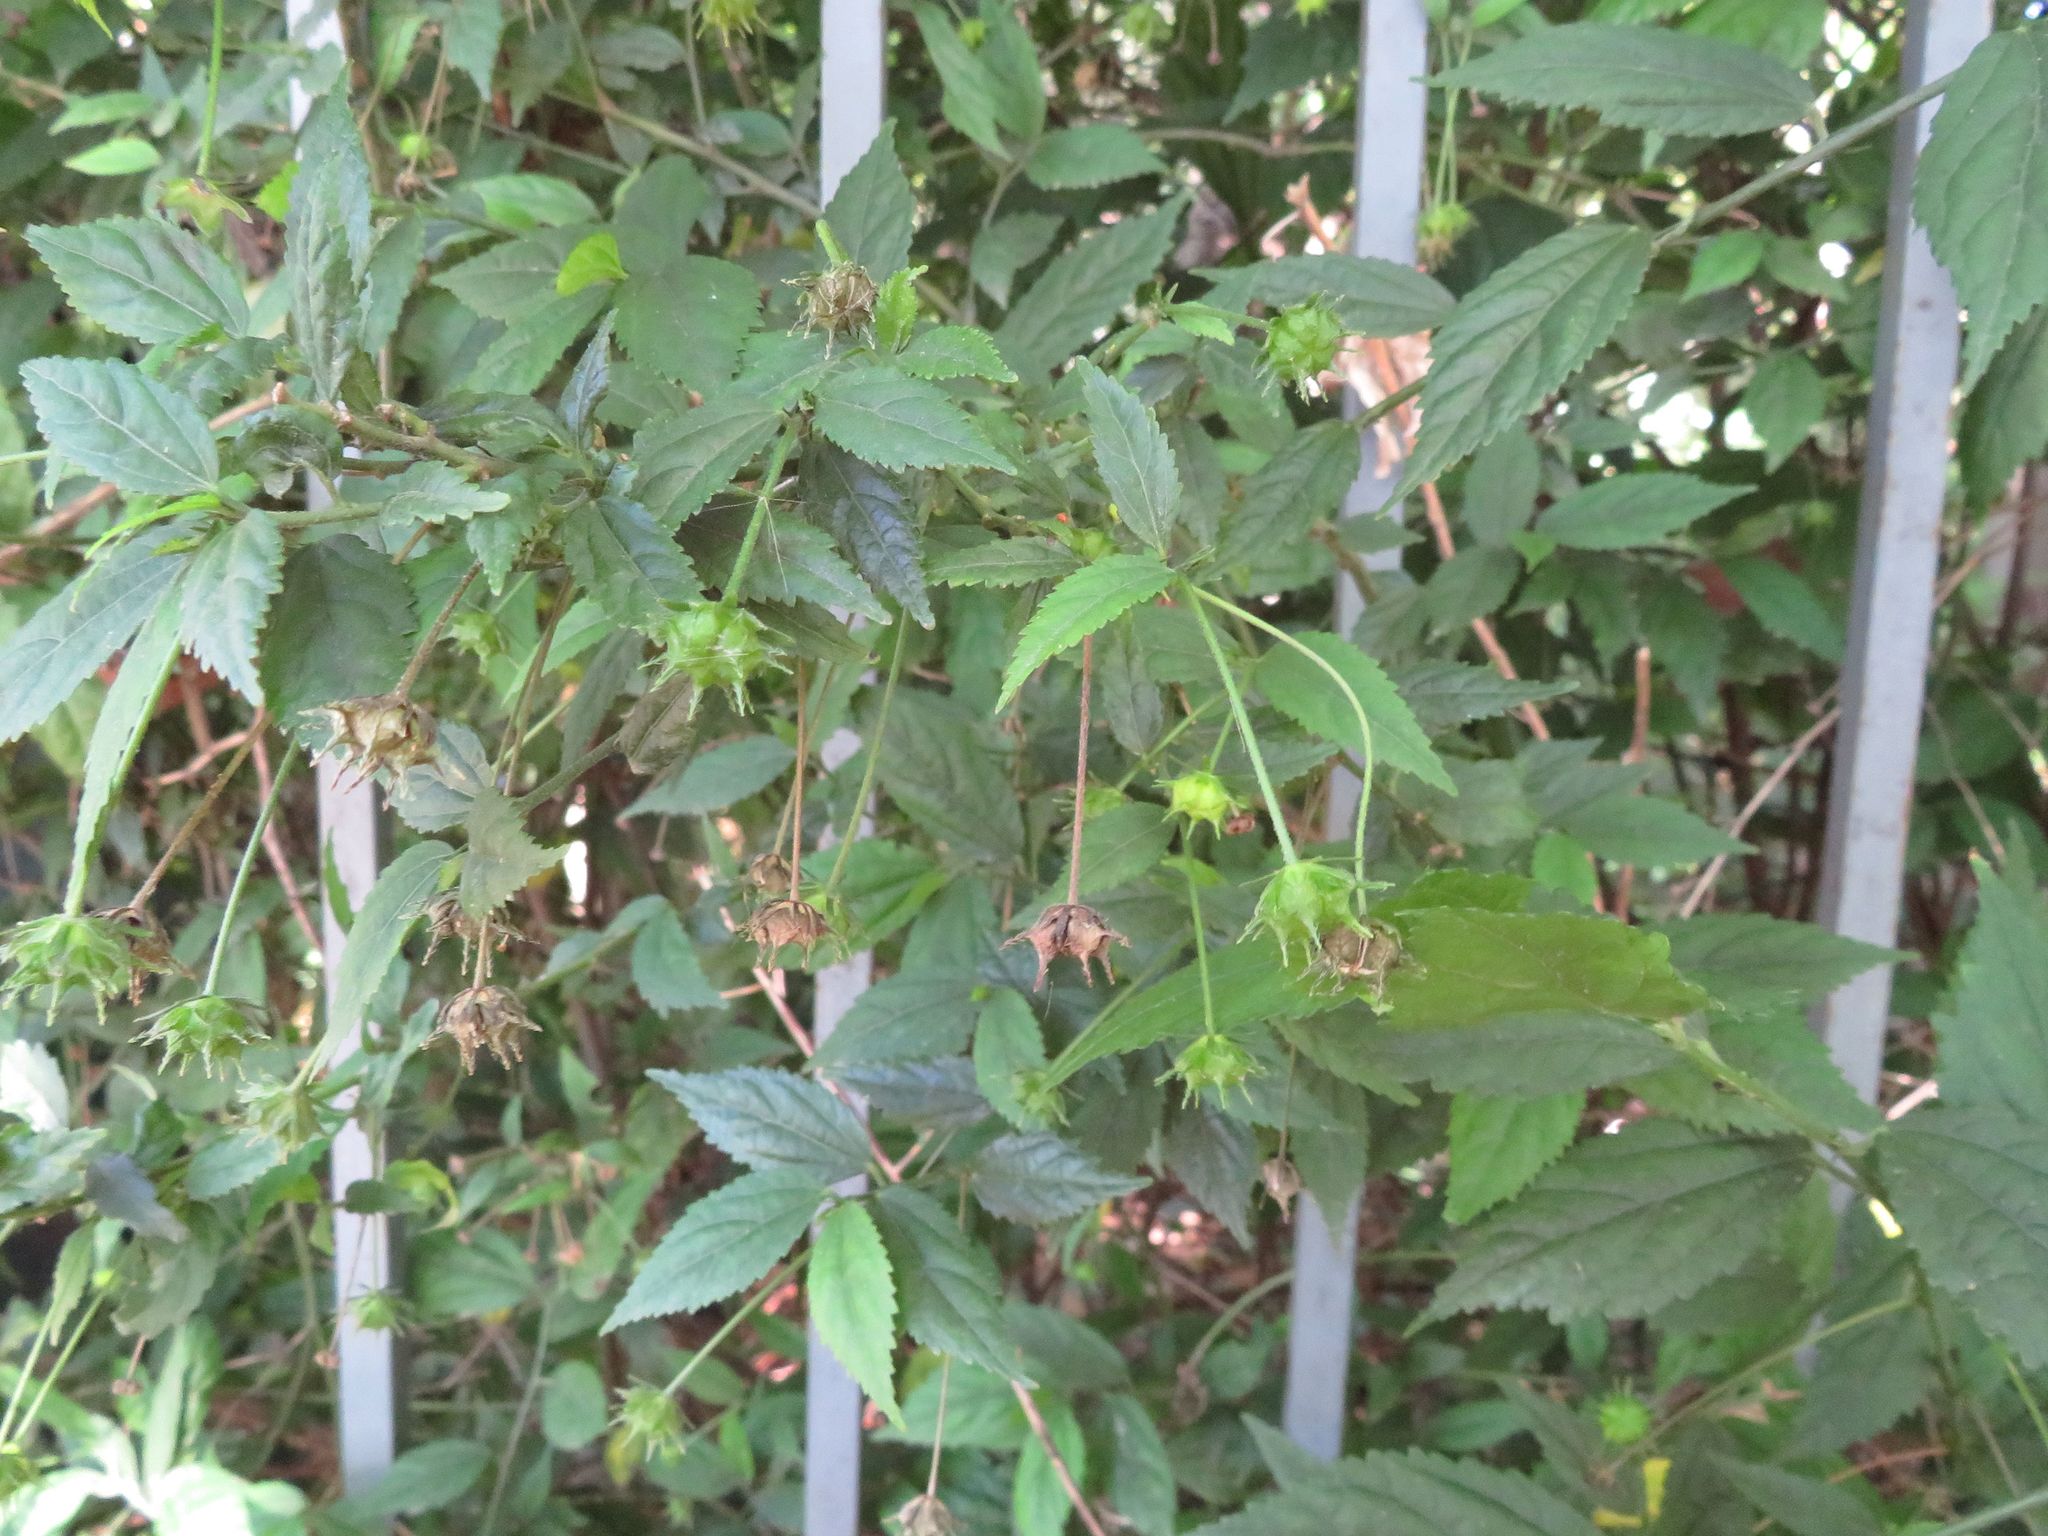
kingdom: Plantae
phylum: Tracheophyta
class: Magnoliopsida
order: Malvales
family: Malvaceae
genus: Pavonia
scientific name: Pavonia sepium
